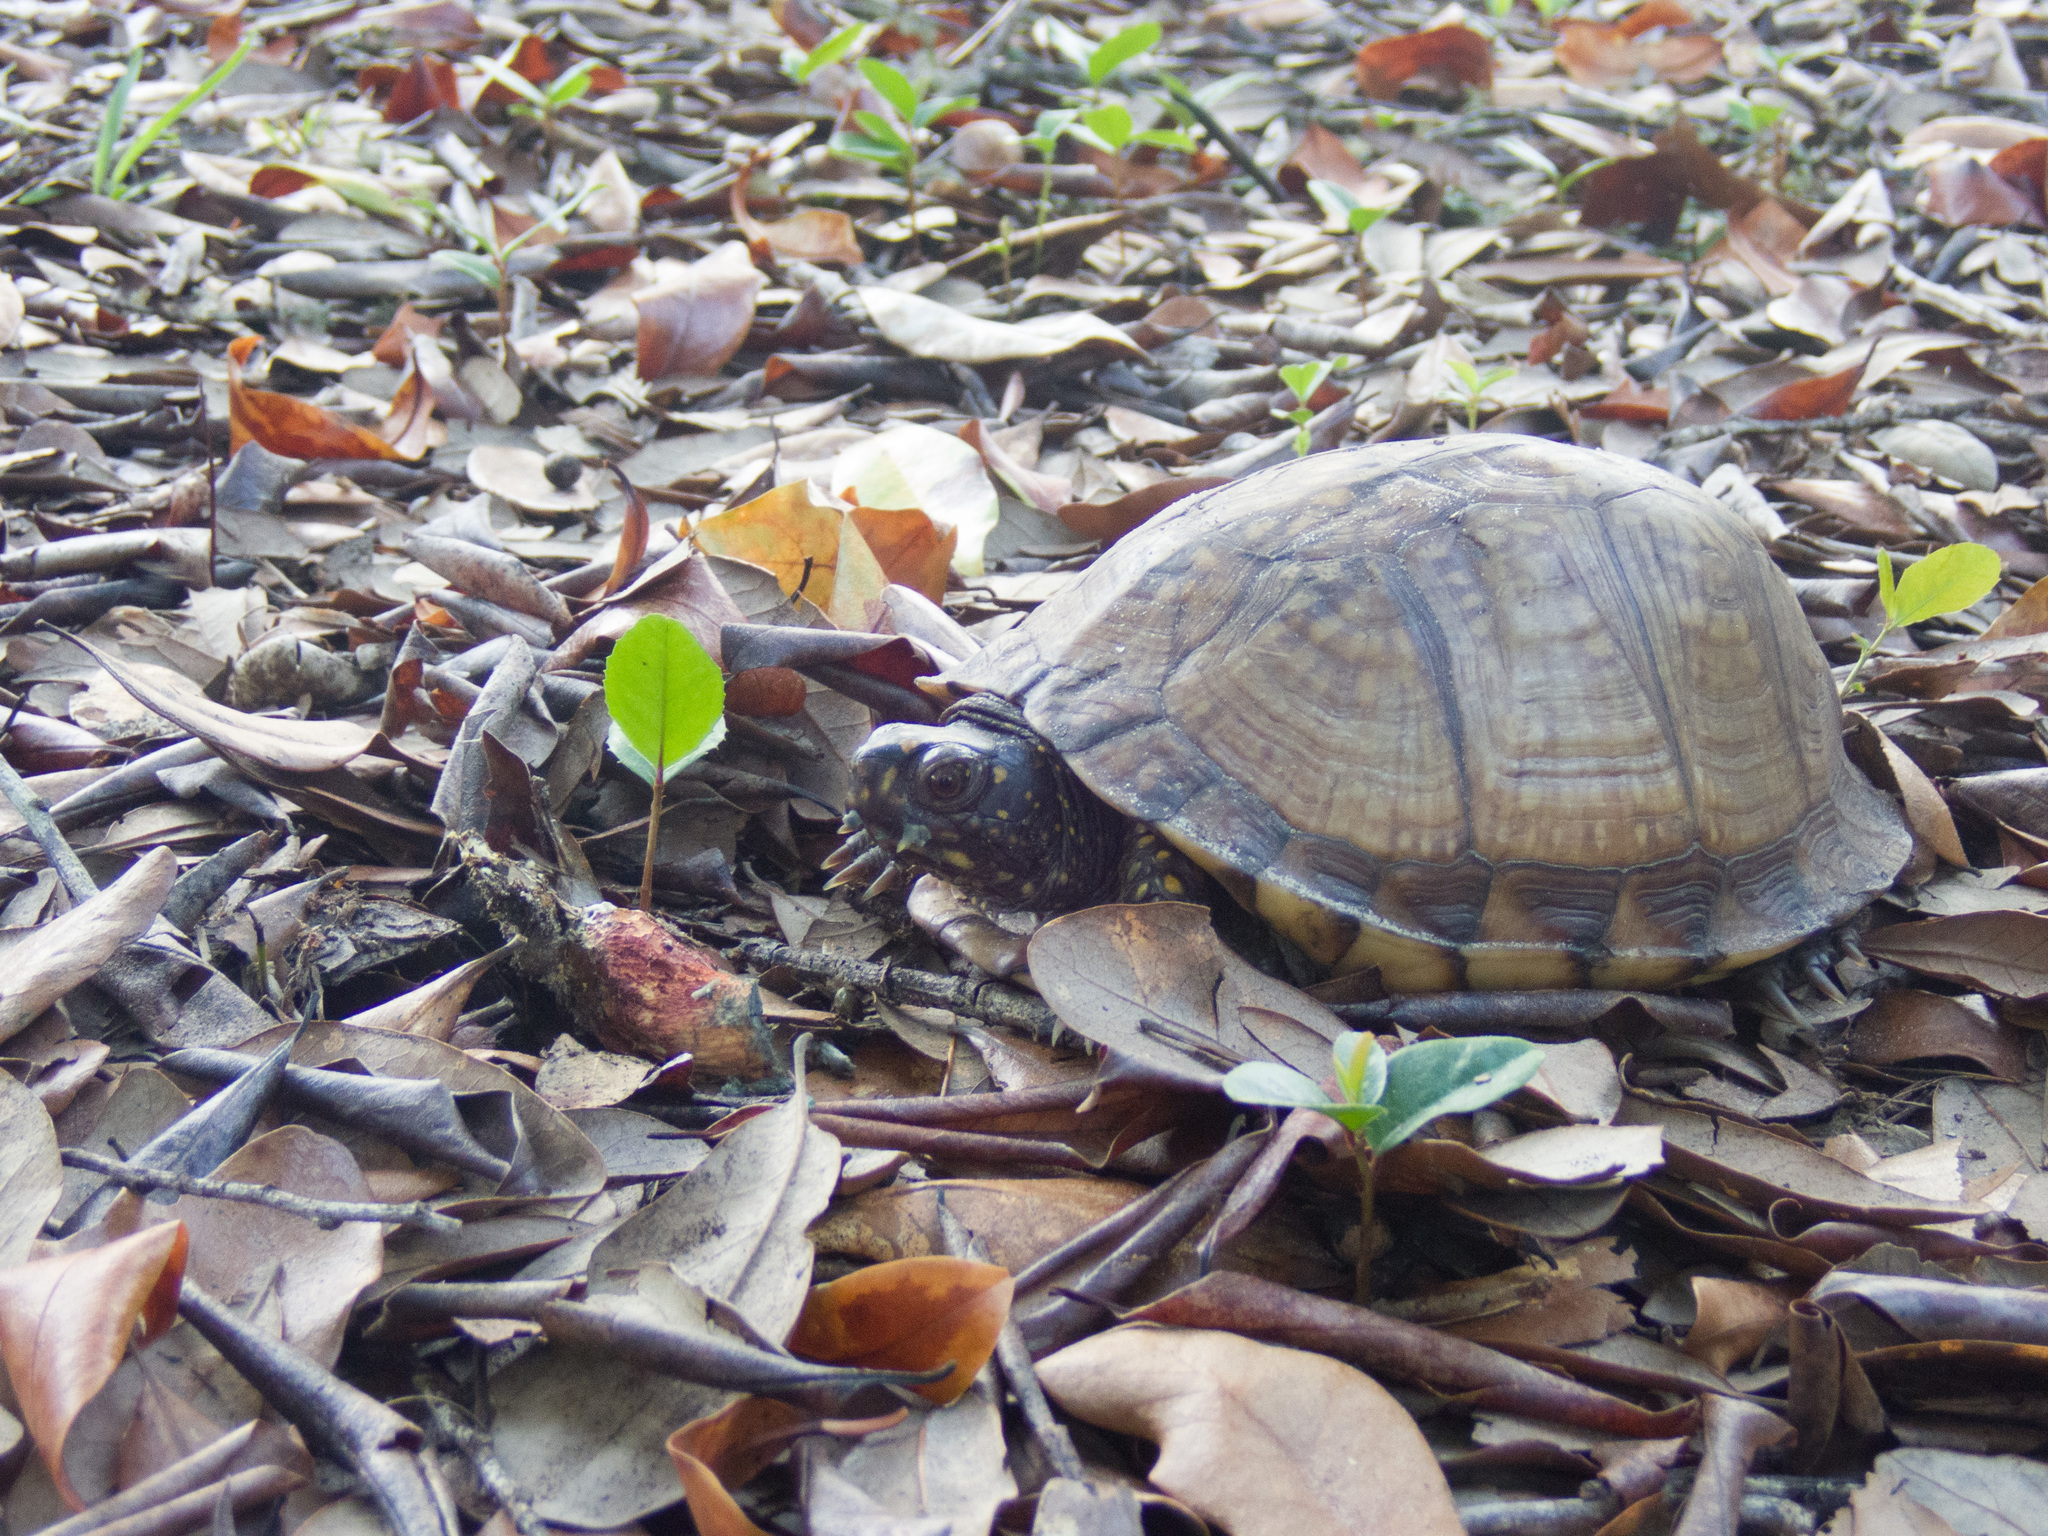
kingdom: Animalia
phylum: Chordata
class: Testudines
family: Emydidae
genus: Terrapene
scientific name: Terrapene carolina
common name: Common box turtle
